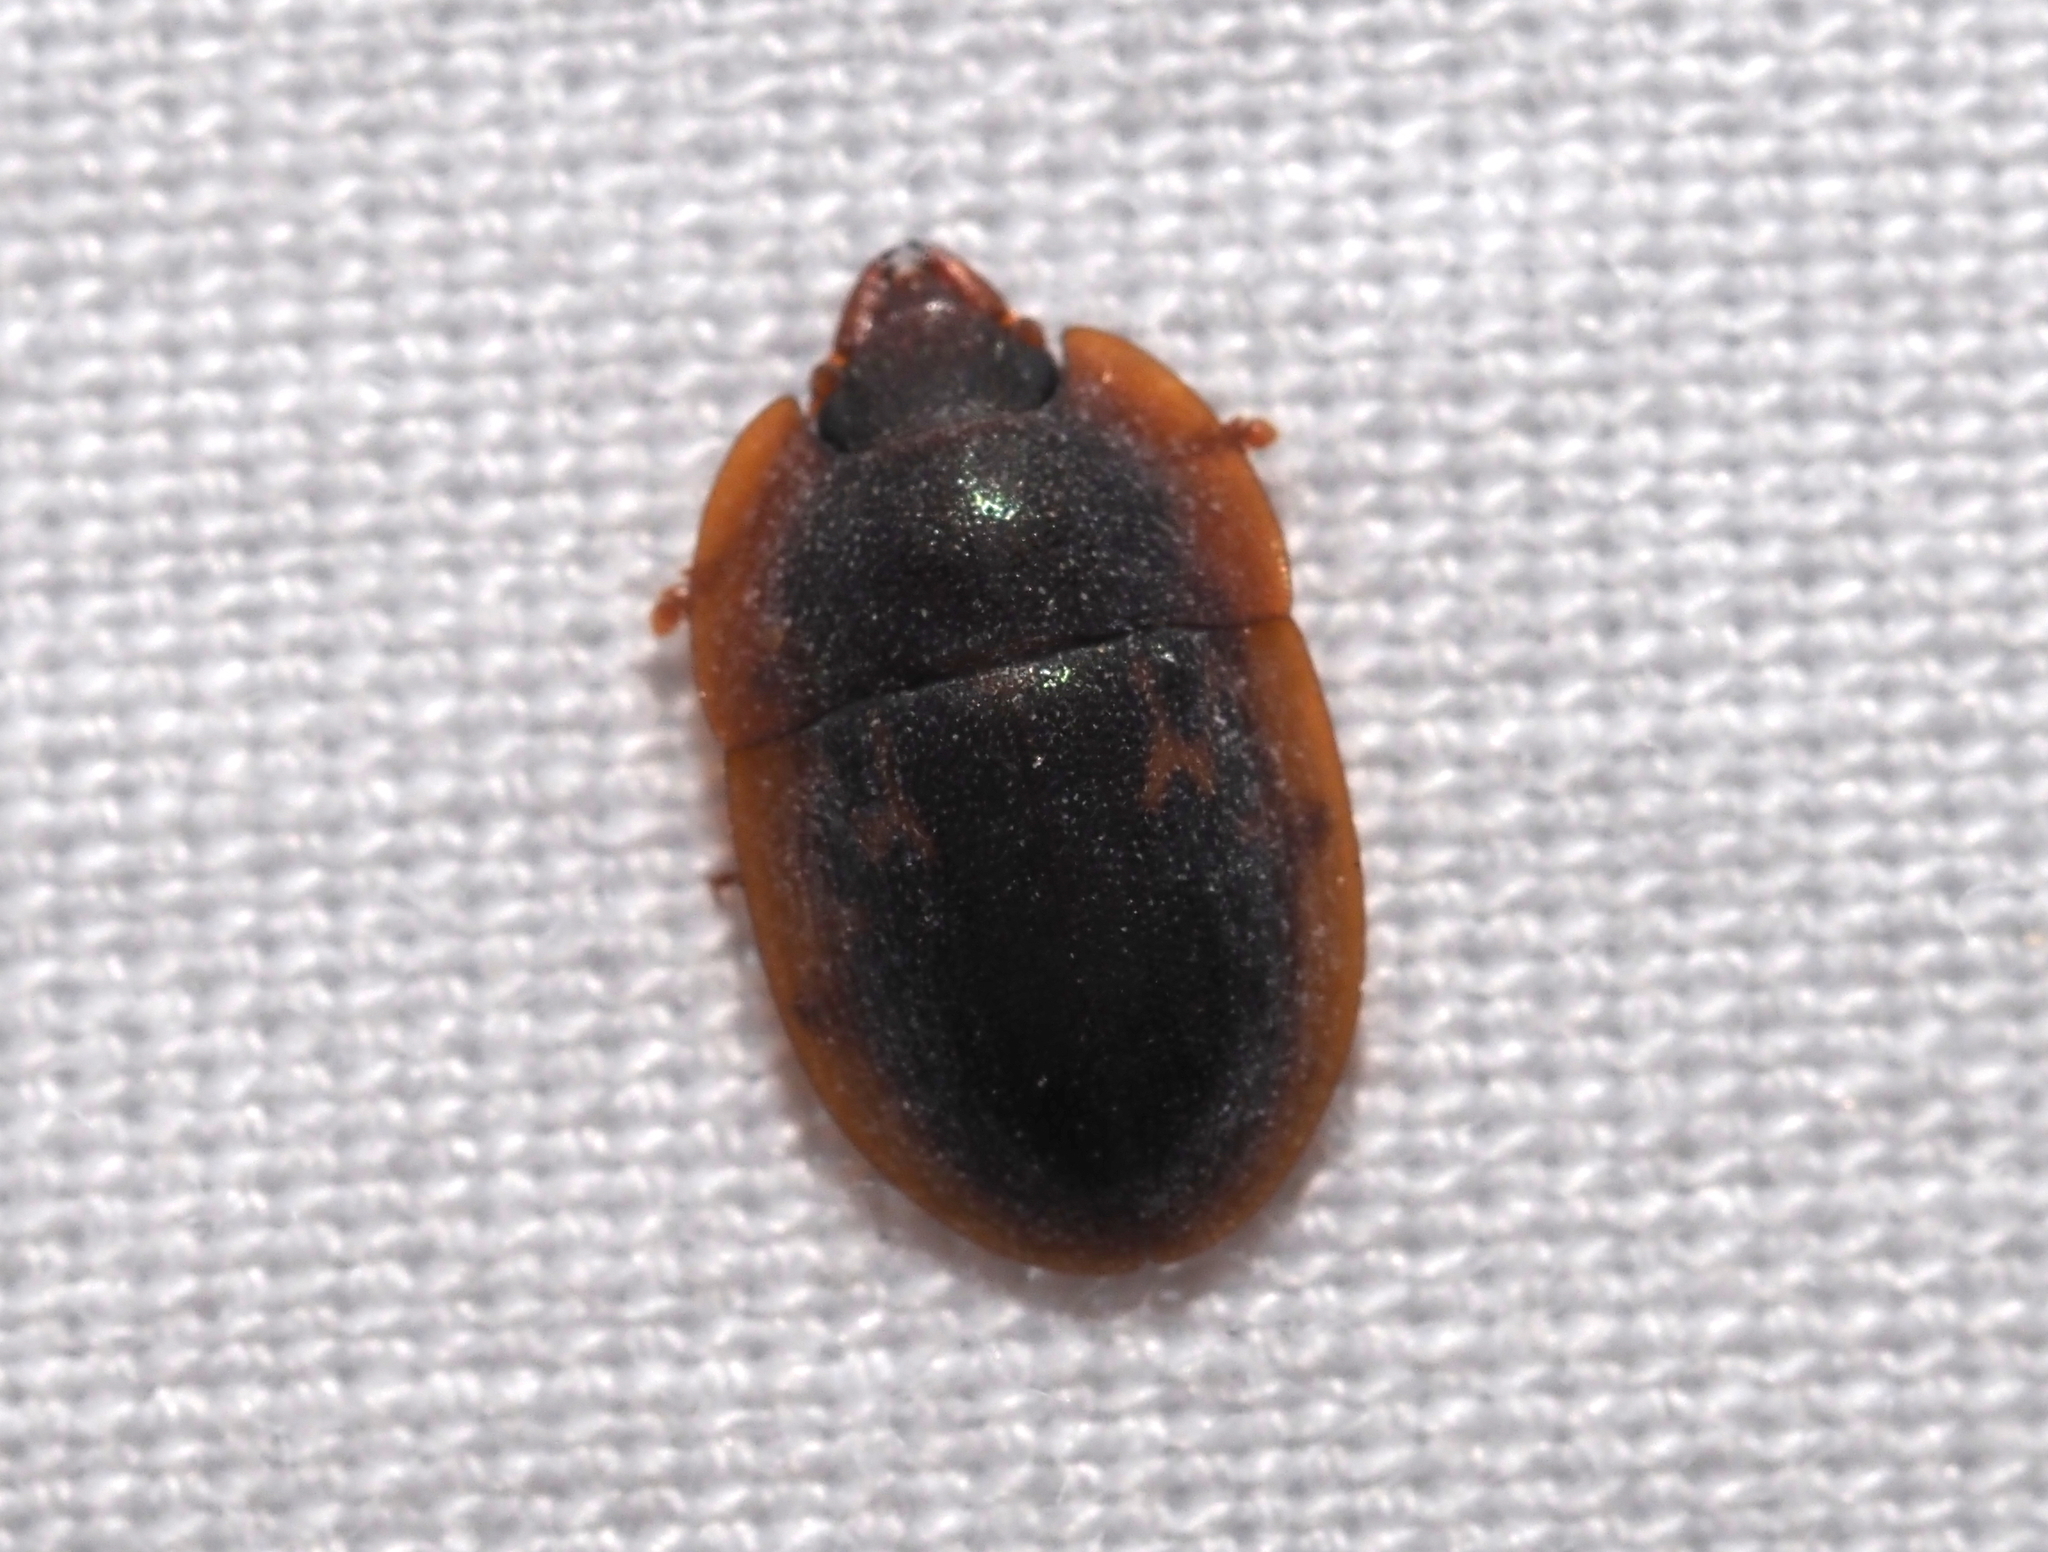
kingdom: Animalia
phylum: Arthropoda
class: Insecta
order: Coleoptera
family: Nitidulidae
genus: Prometopia
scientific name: Prometopia sexmaculata
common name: Six-spotted sap-feeding beetle
